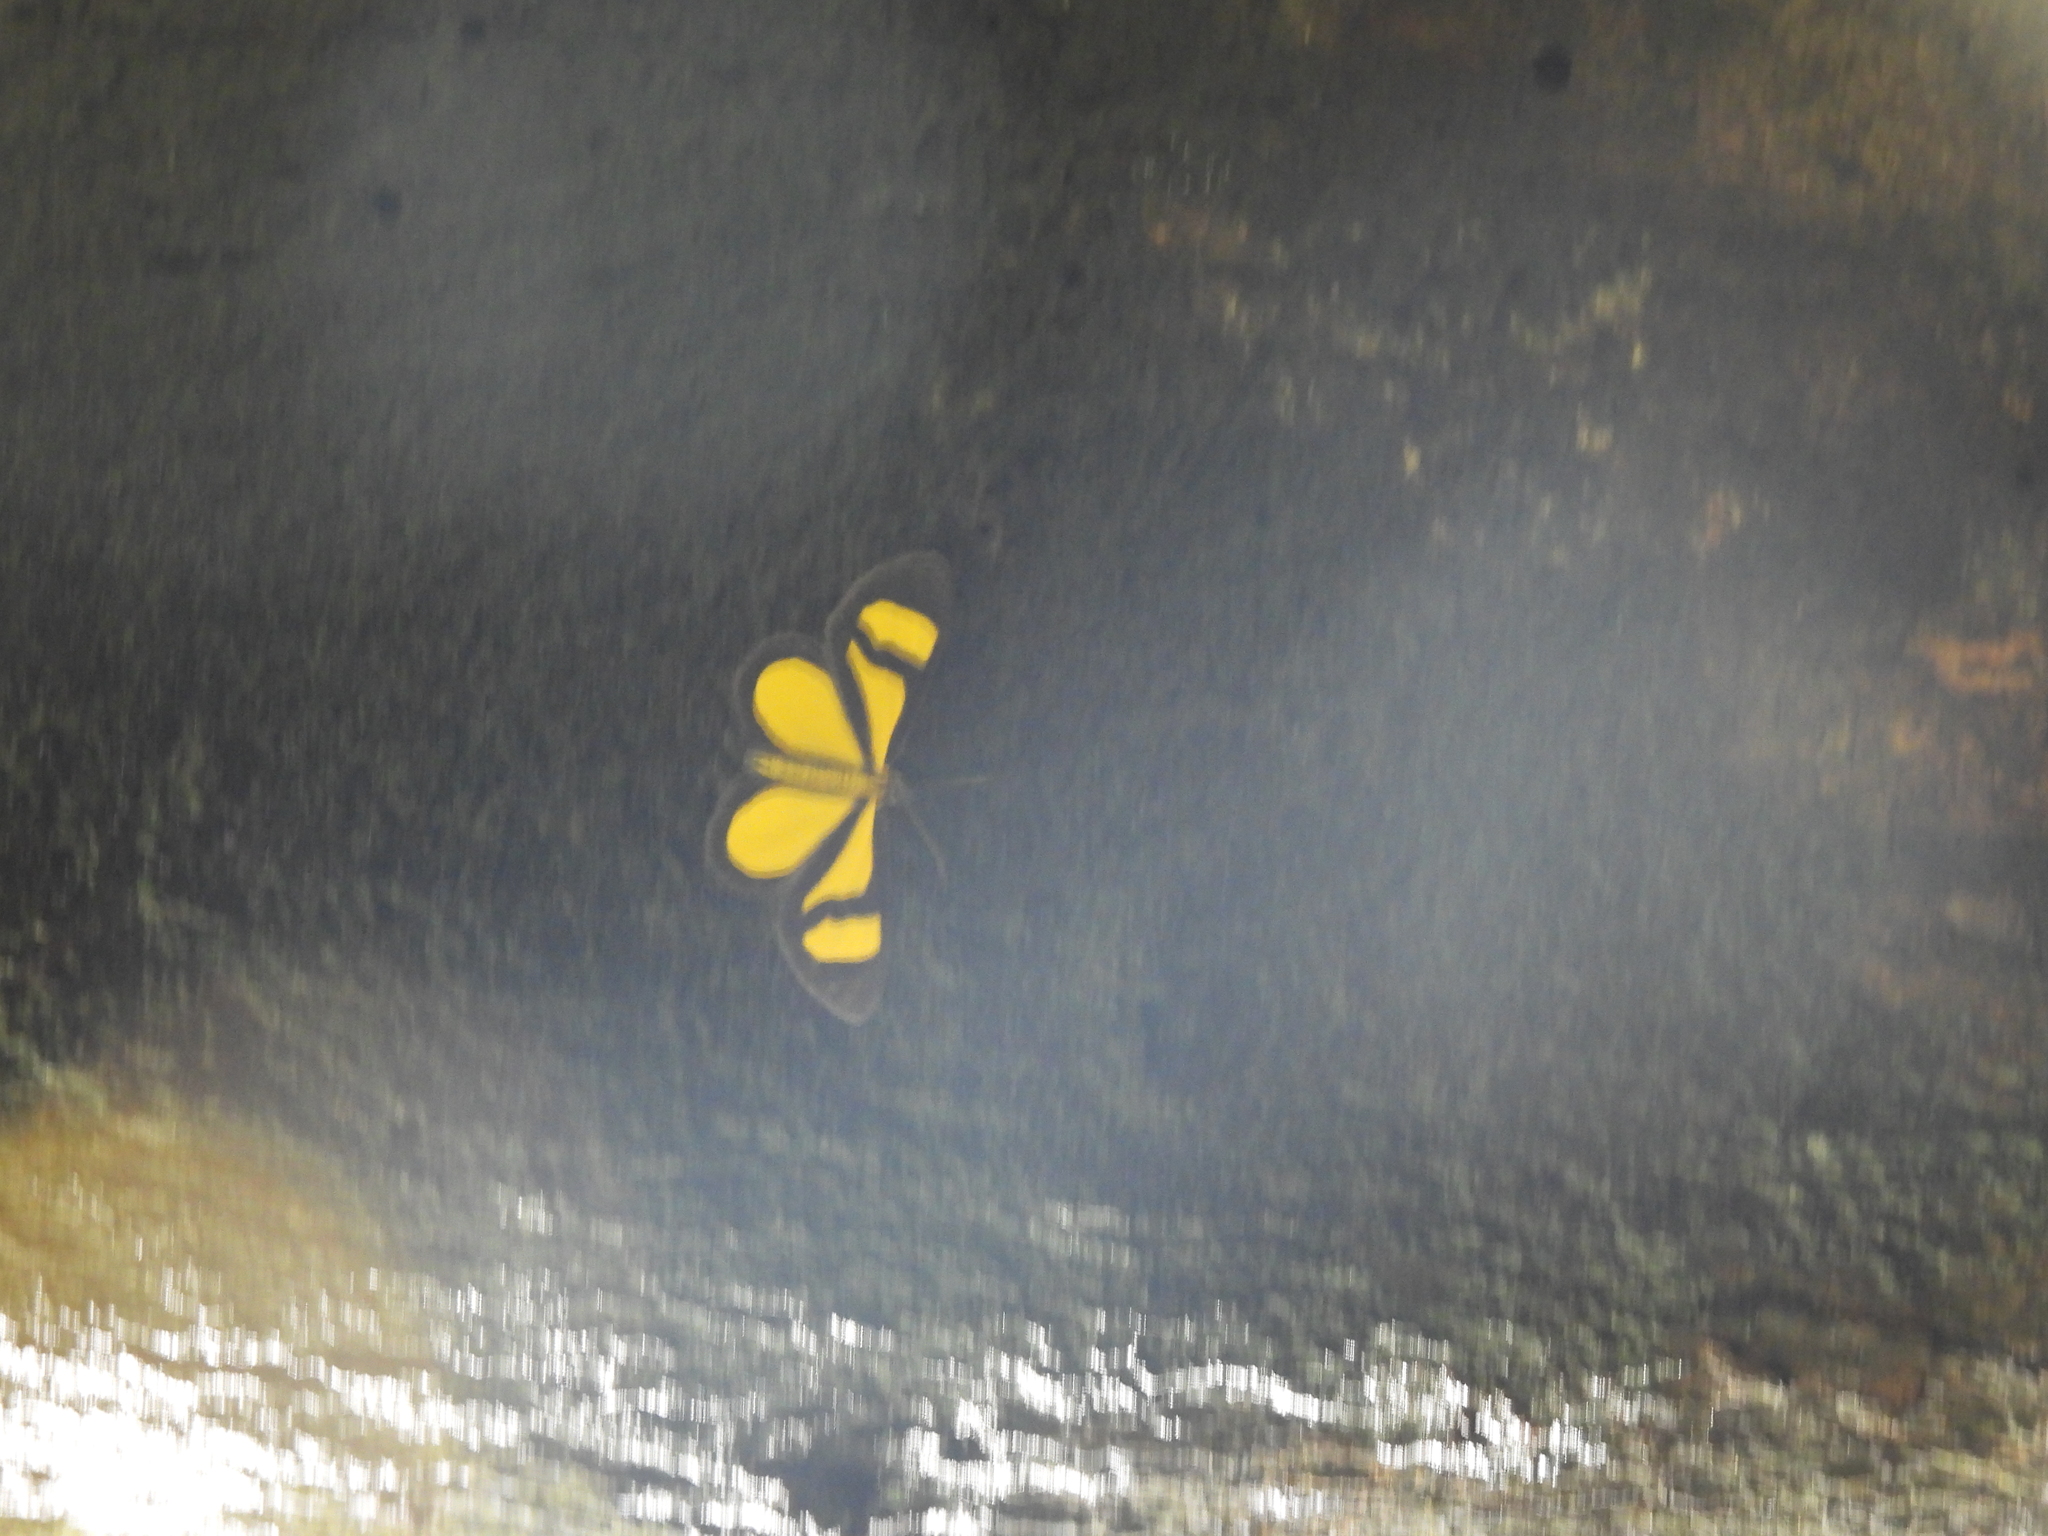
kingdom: Animalia
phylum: Arthropoda
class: Insecta
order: Lepidoptera
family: Geometridae
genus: Smicropus
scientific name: Smicropus laeta
